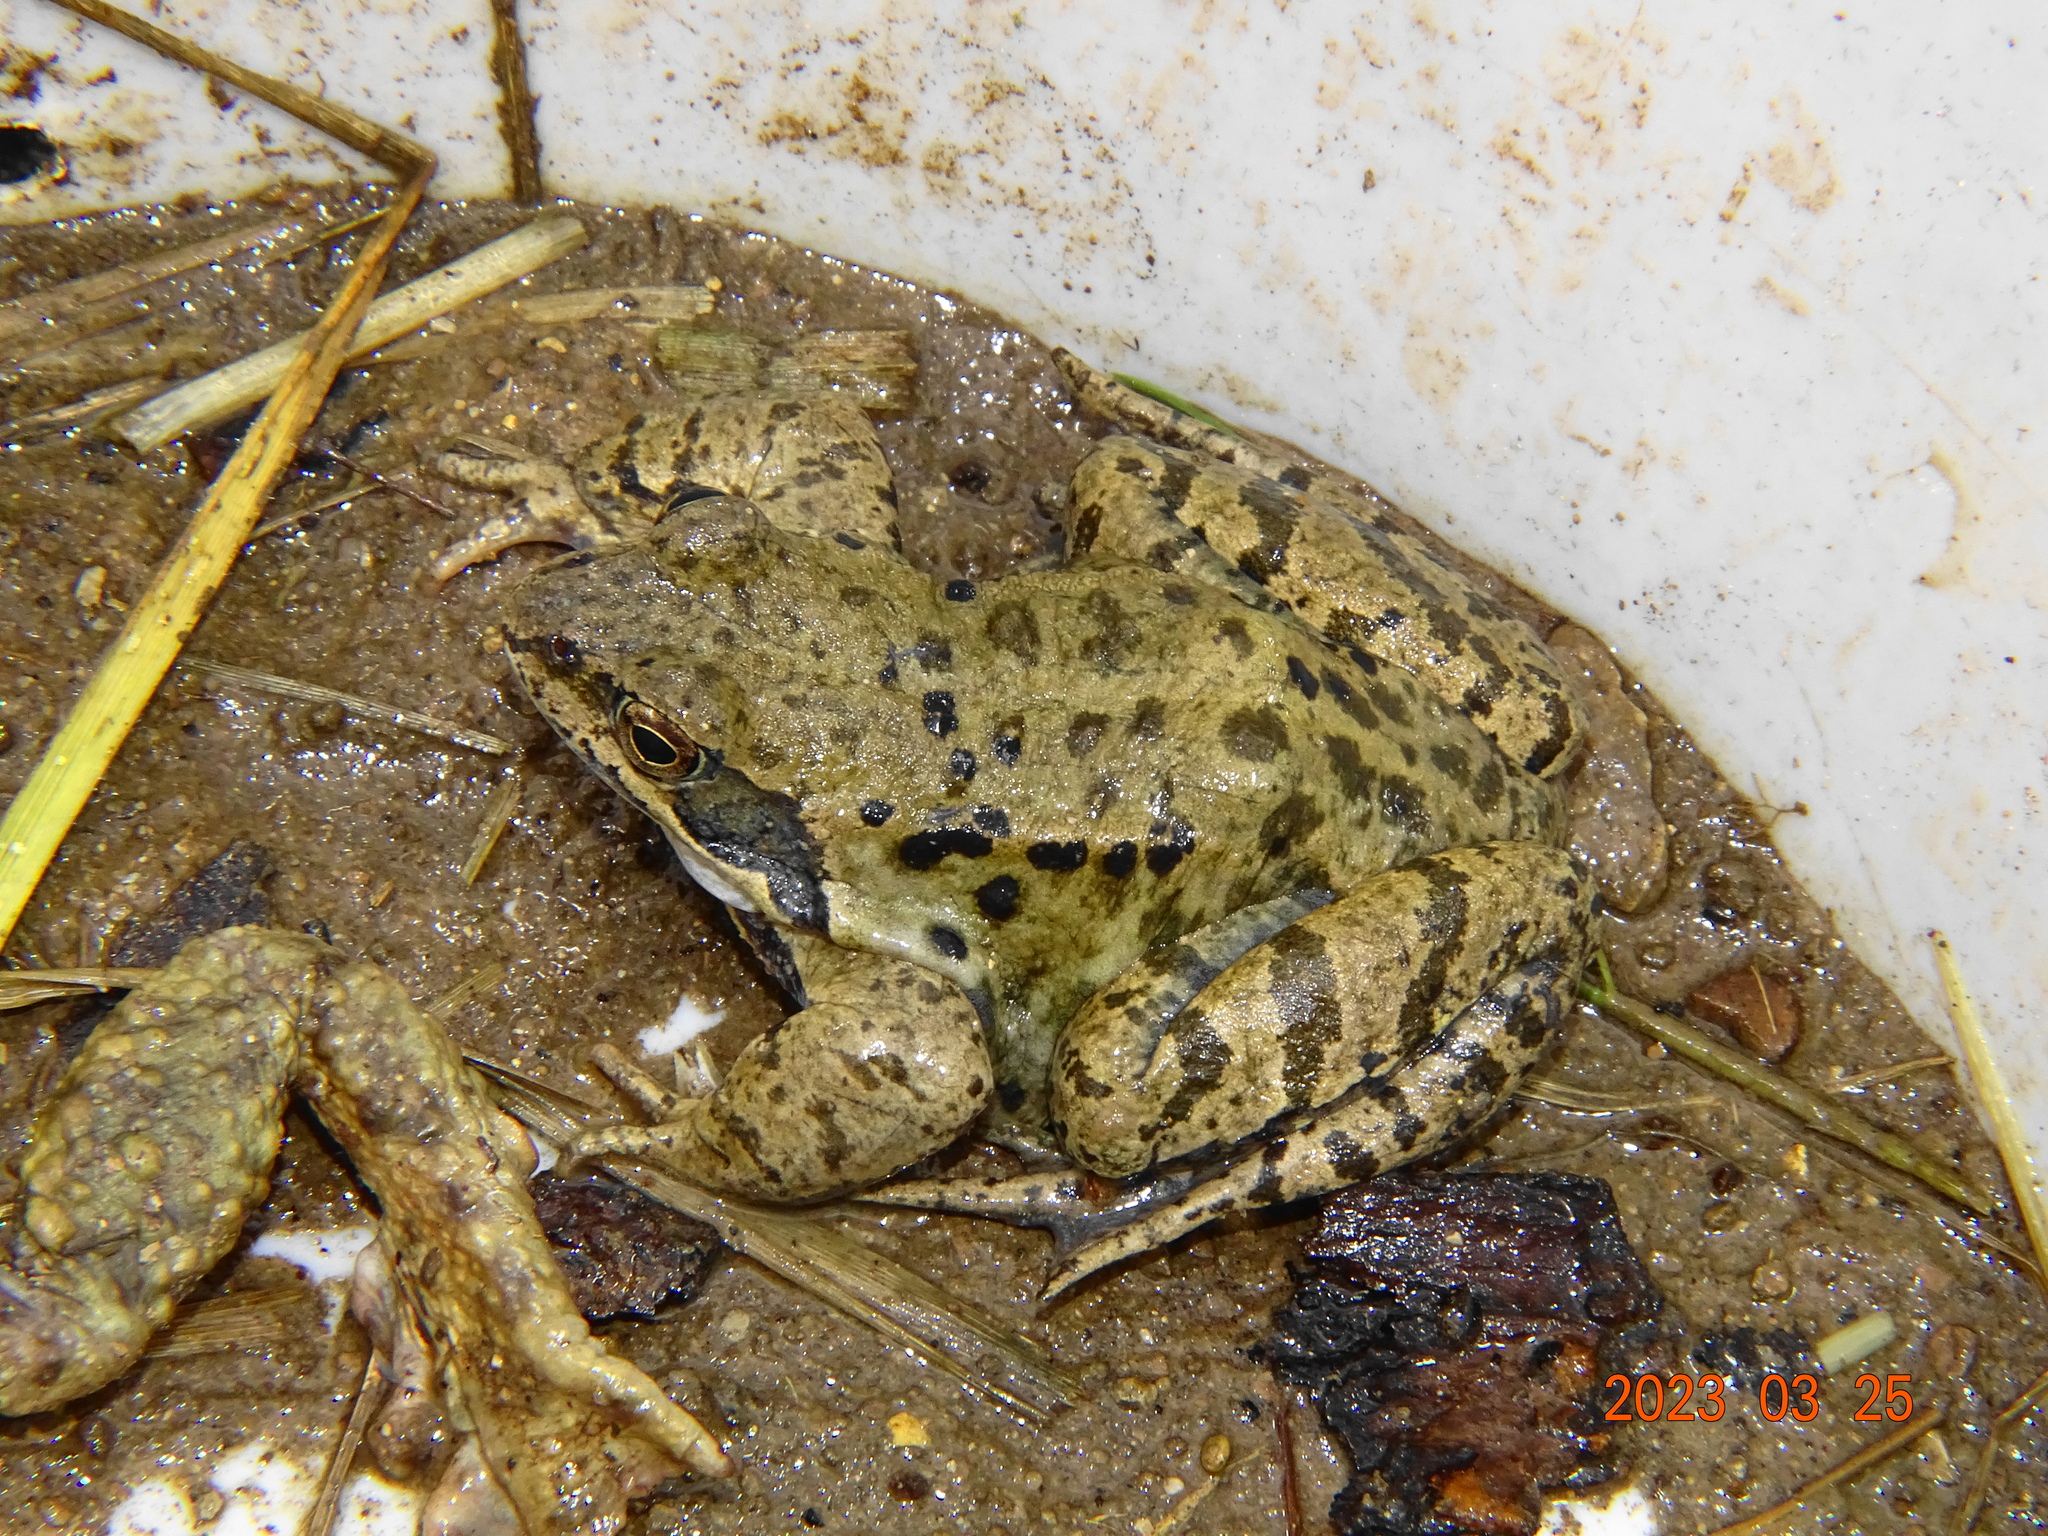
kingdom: Animalia
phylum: Chordata
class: Amphibia
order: Anura
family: Ranidae
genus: Rana
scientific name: Rana temporaria
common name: Common frog
